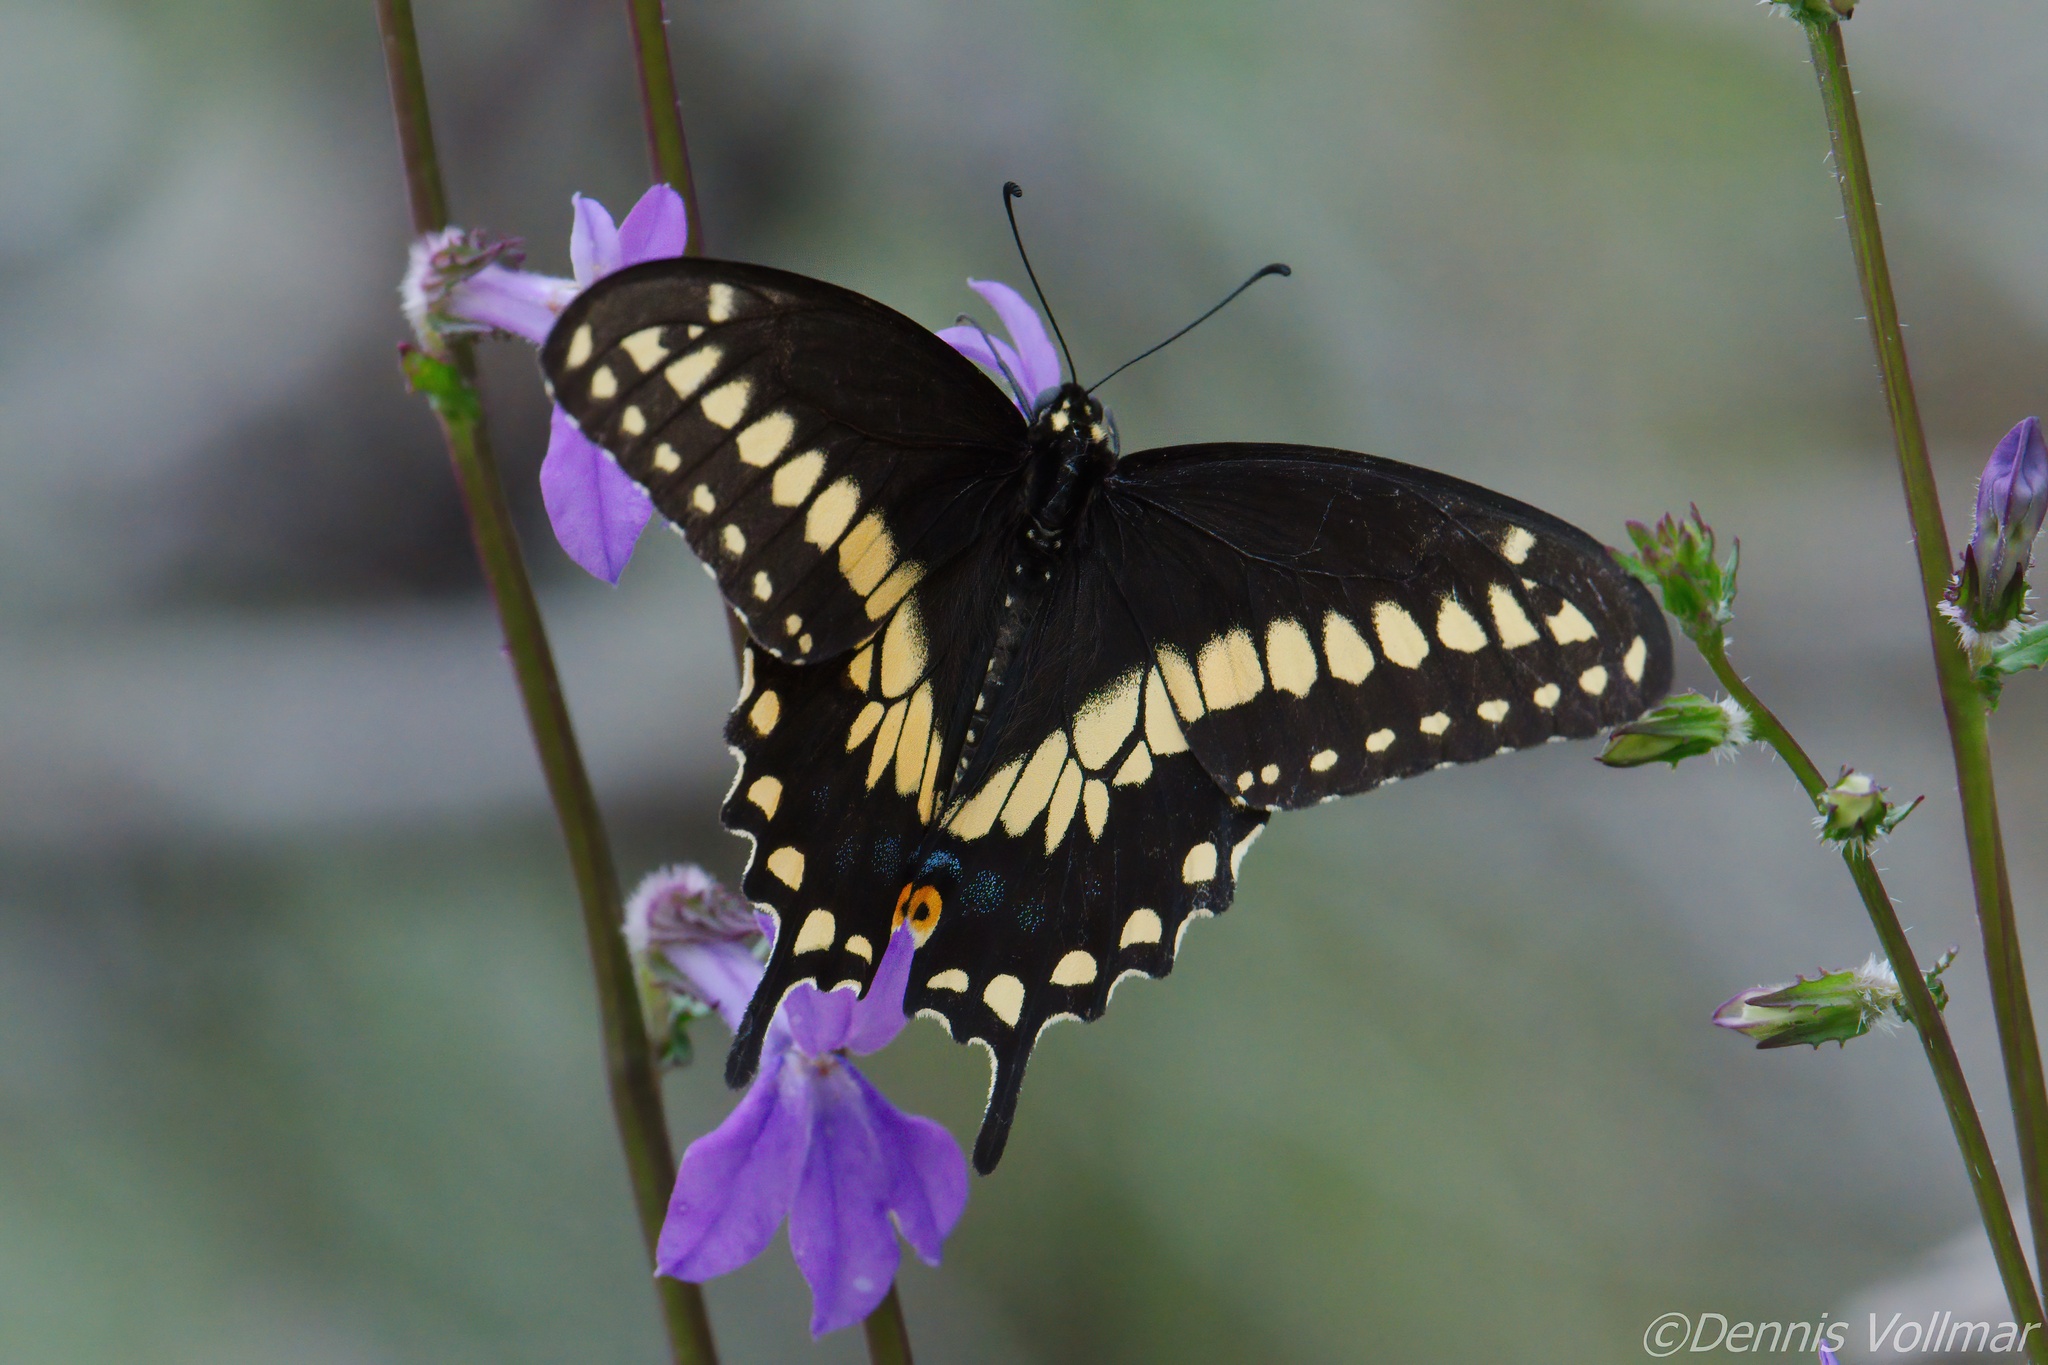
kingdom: Animalia
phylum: Arthropoda
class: Insecta
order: Lepidoptera
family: Papilionidae
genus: Papilio
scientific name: Papilio polyxenes
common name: Black swallowtail
